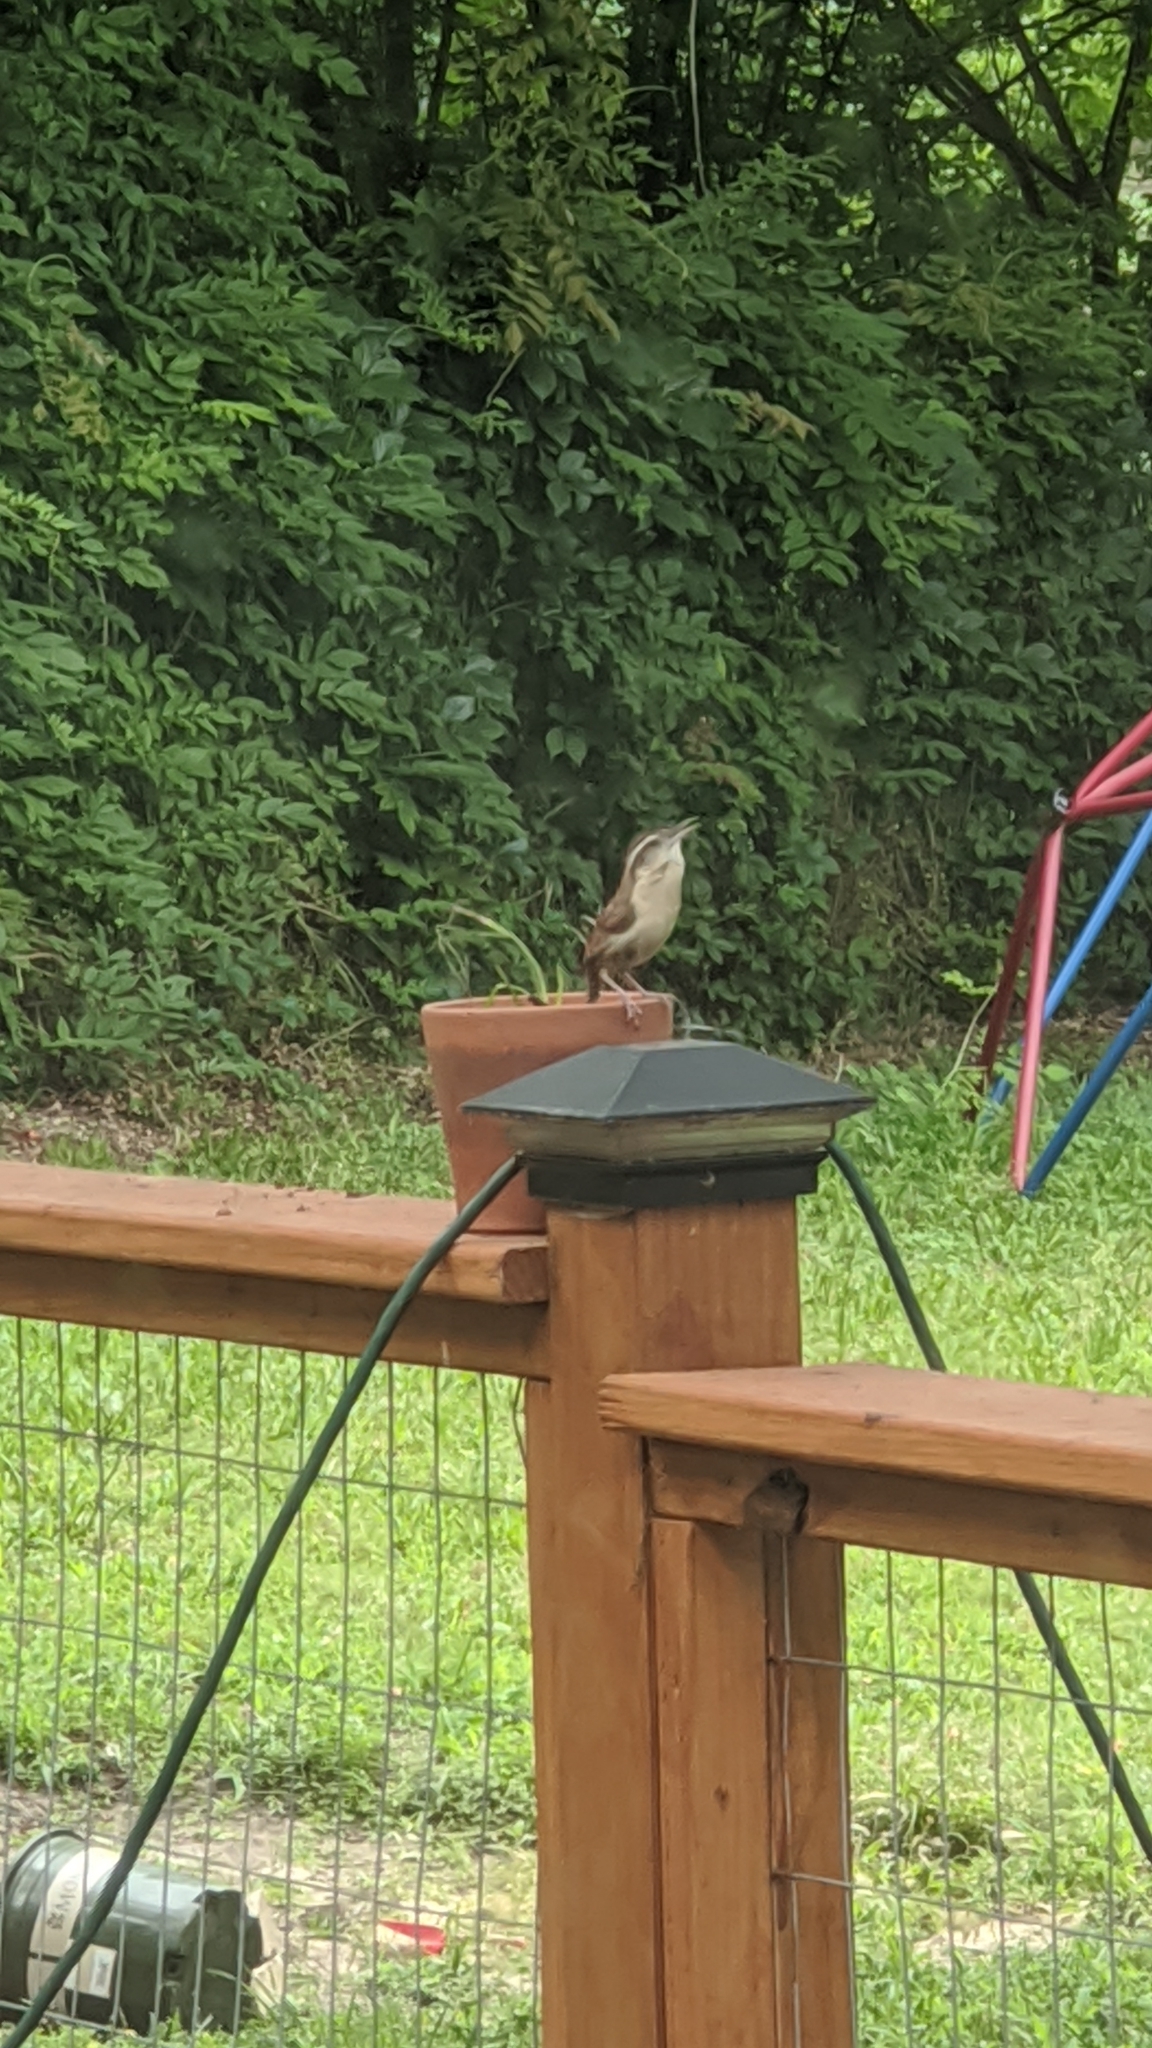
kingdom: Animalia
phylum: Chordata
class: Aves
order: Passeriformes
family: Troglodytidae
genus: Thryothorus
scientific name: Thryothorus ludovicianus
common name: Carolina wren
